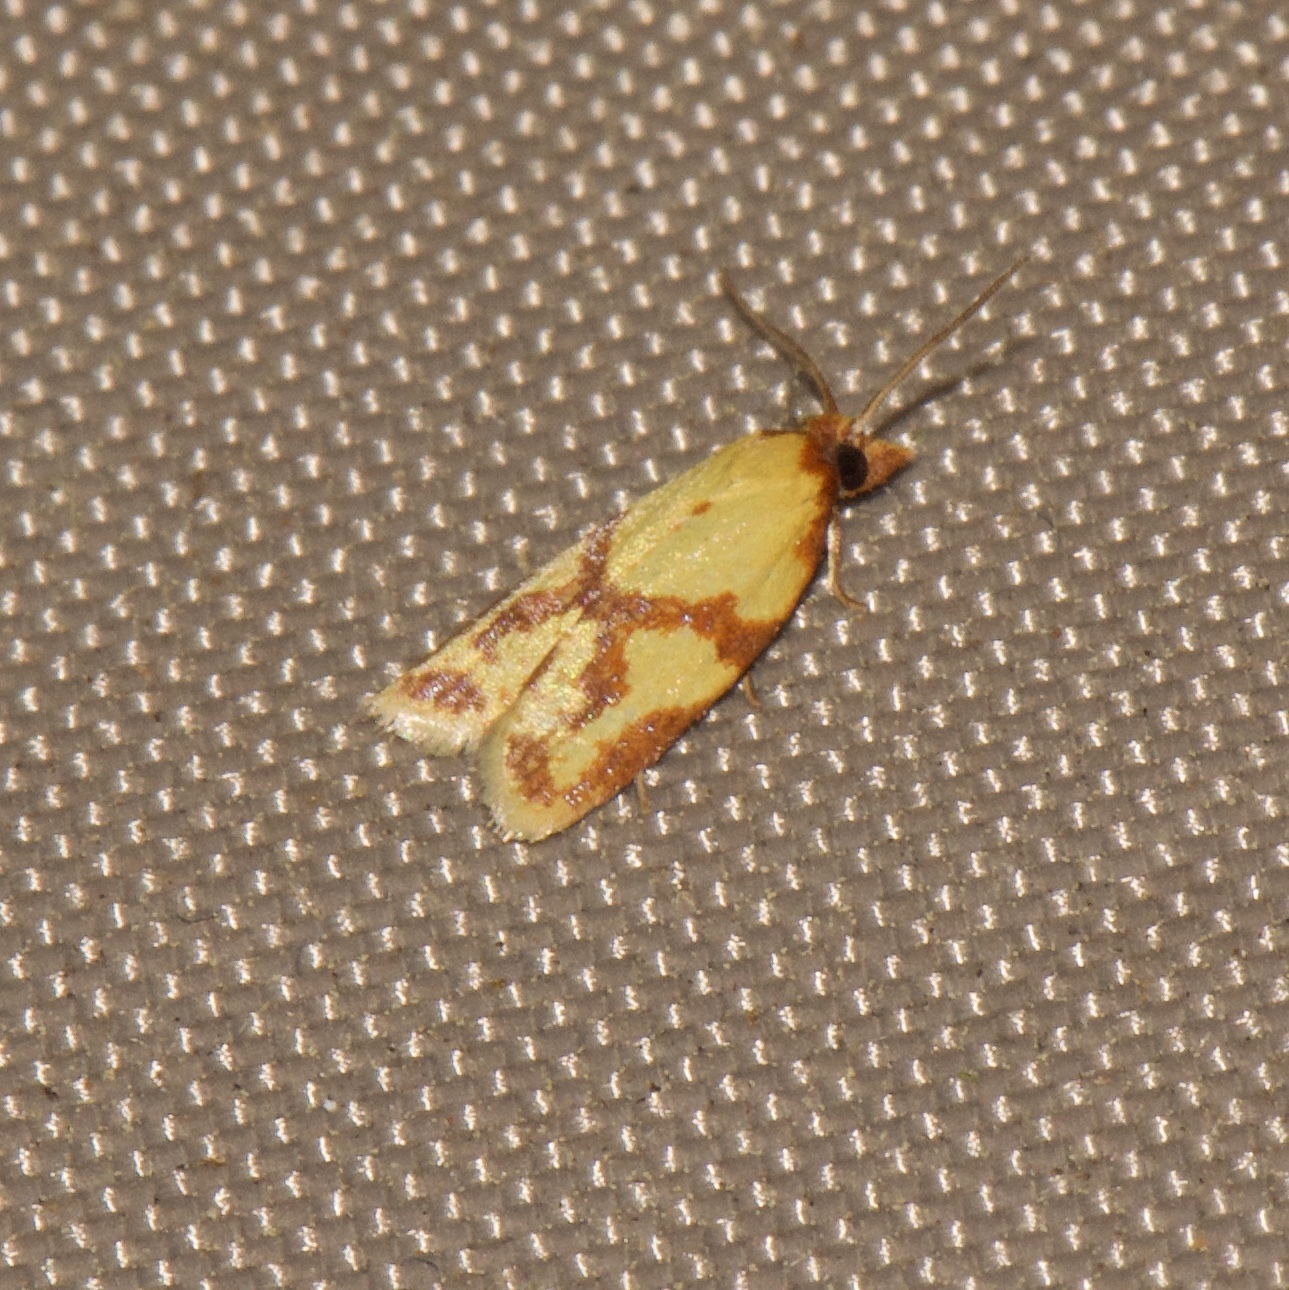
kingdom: Animalia
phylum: Arthropoda
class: Insecta
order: Lepidoptera
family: Tortricidae
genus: Sparganothis
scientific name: Sparganothis sulfureana
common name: Sparganothis fruitworm moth
